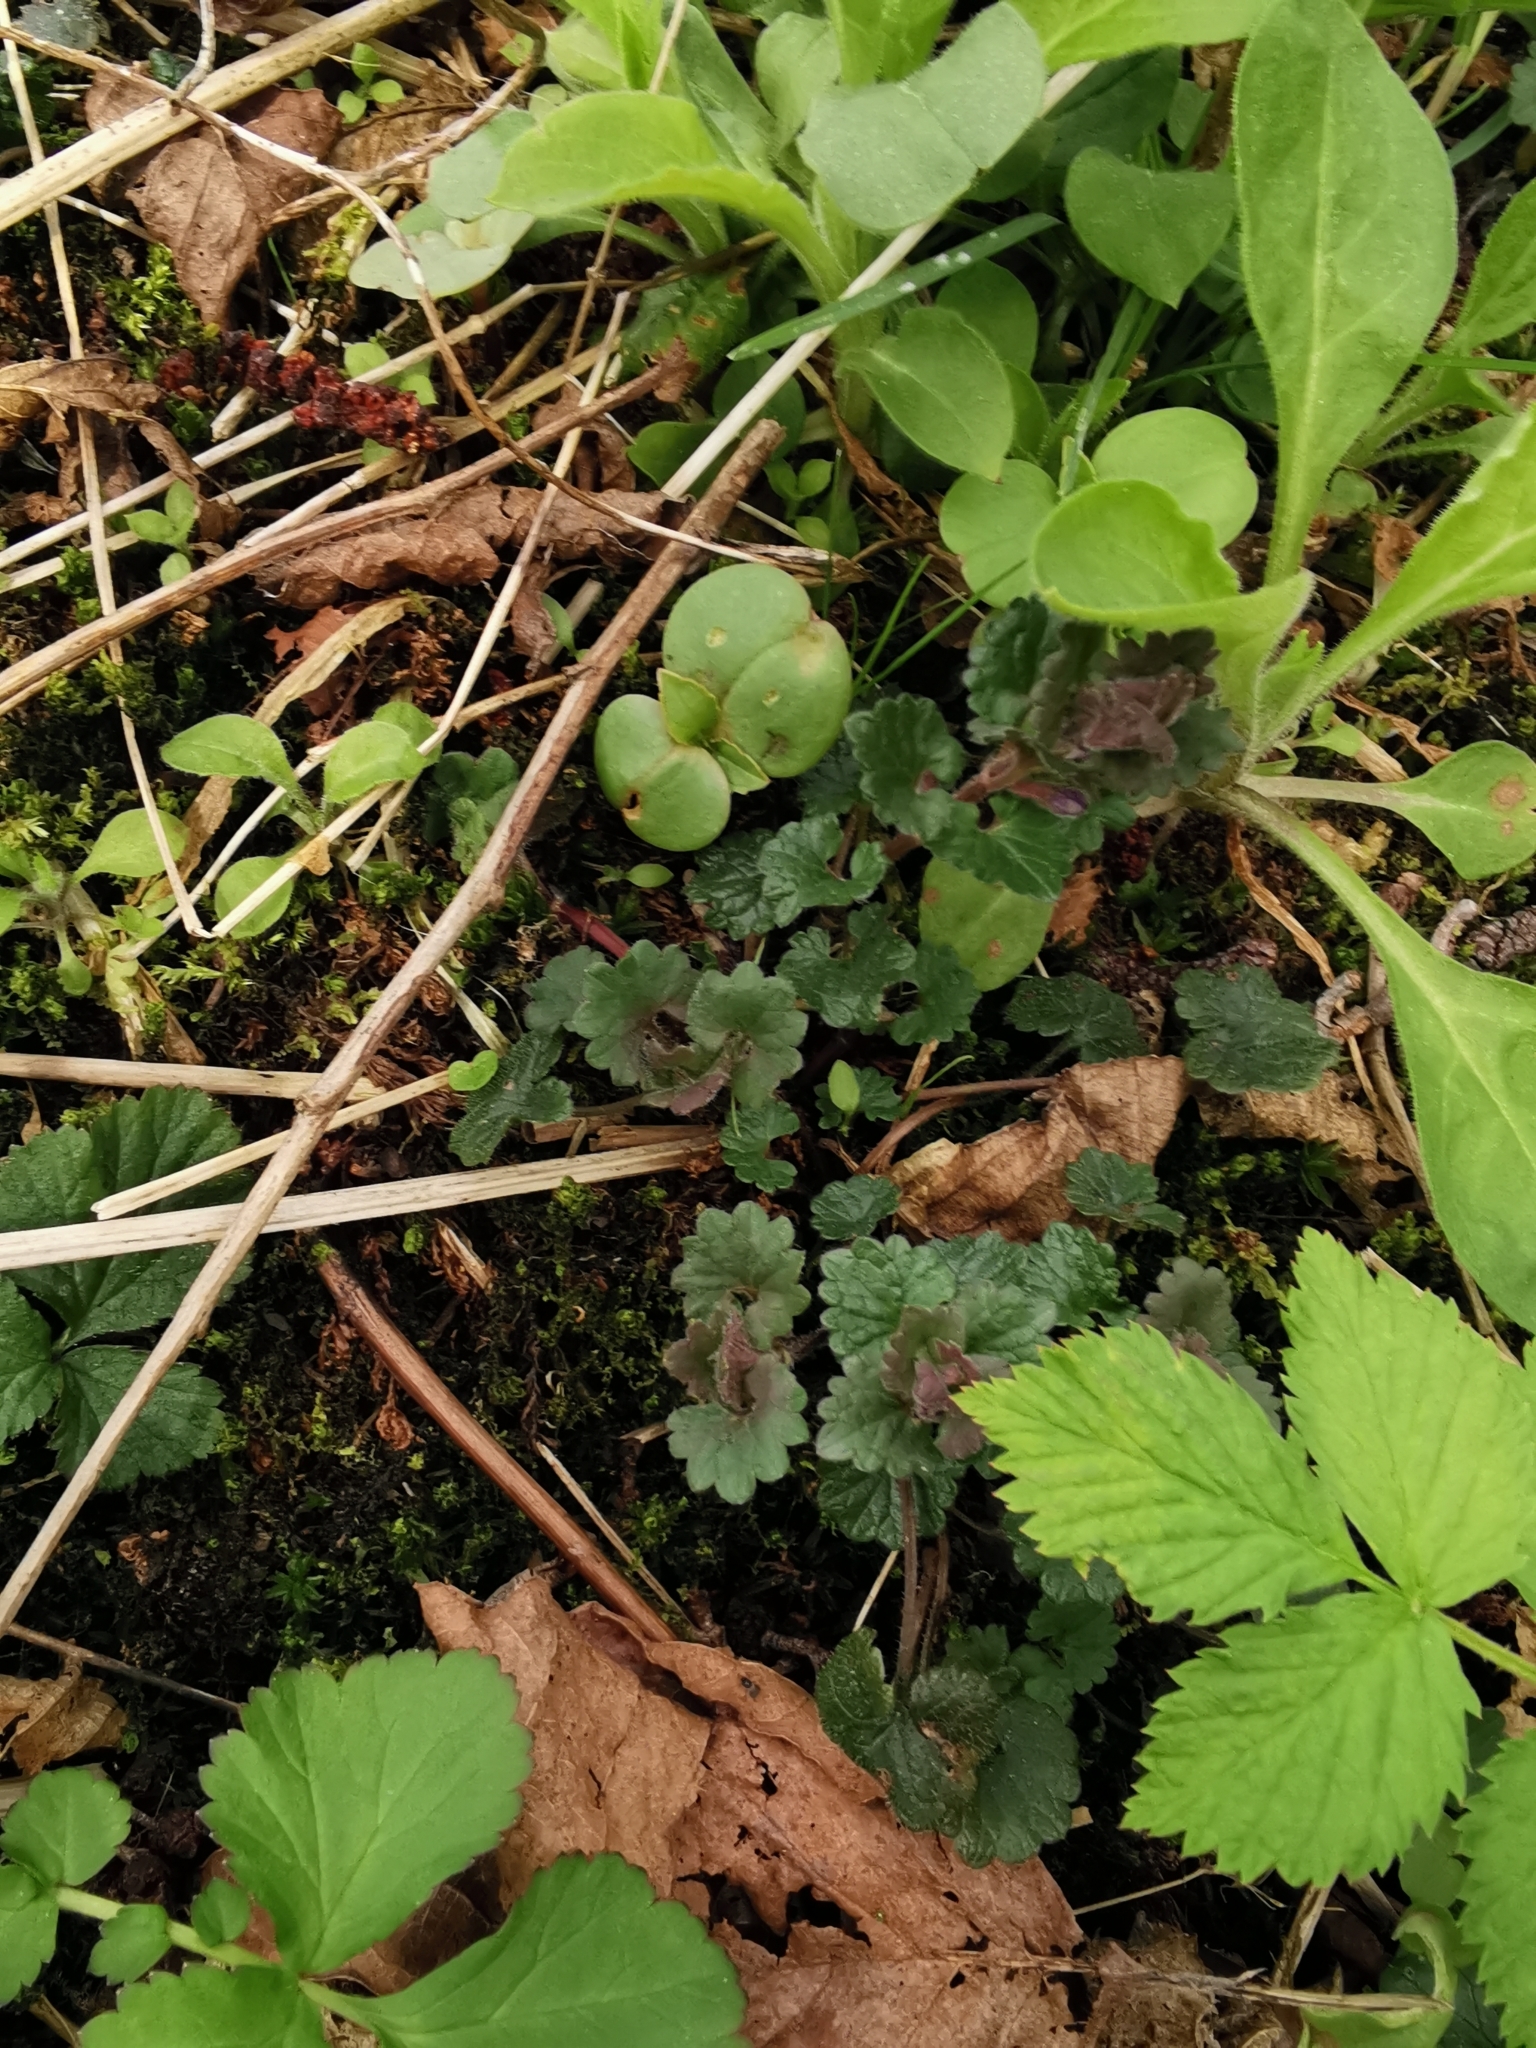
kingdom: Plantae
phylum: Tracheophyta
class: Magnoliopsida
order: Lamiales
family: Lamiaceae
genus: Glechoma
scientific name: Glechoma hederacea
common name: Ground ivy
